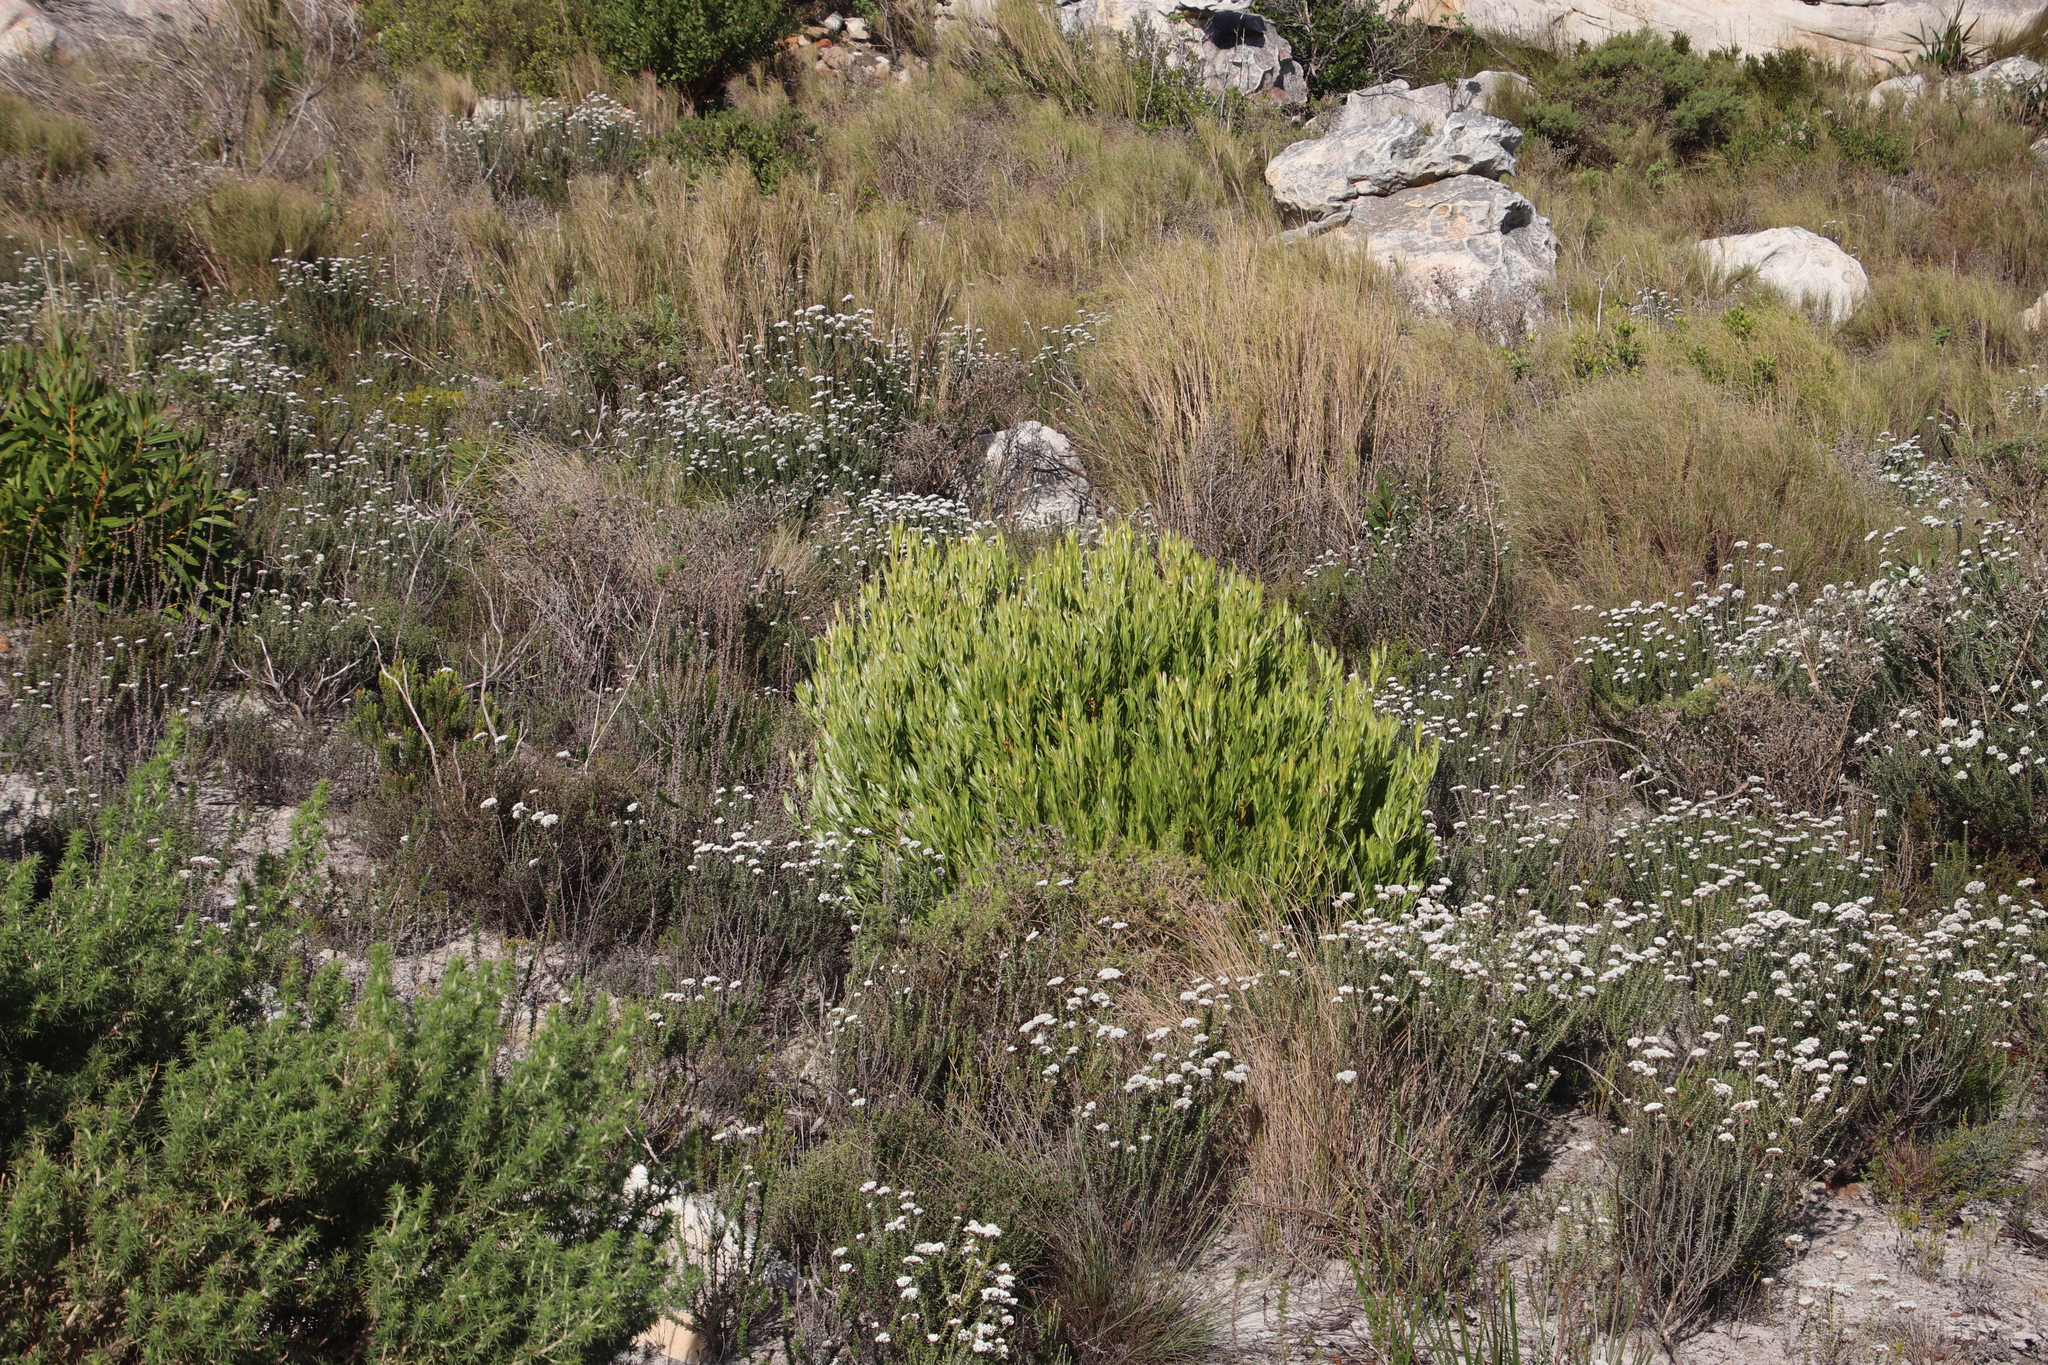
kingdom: Plantae
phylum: Tracheophyta
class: Magnoliopsida
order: Proteales
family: Proteaceae
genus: Leucadendron
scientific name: Leucadendron xanthoconus
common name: Sickle-leaf conebush
